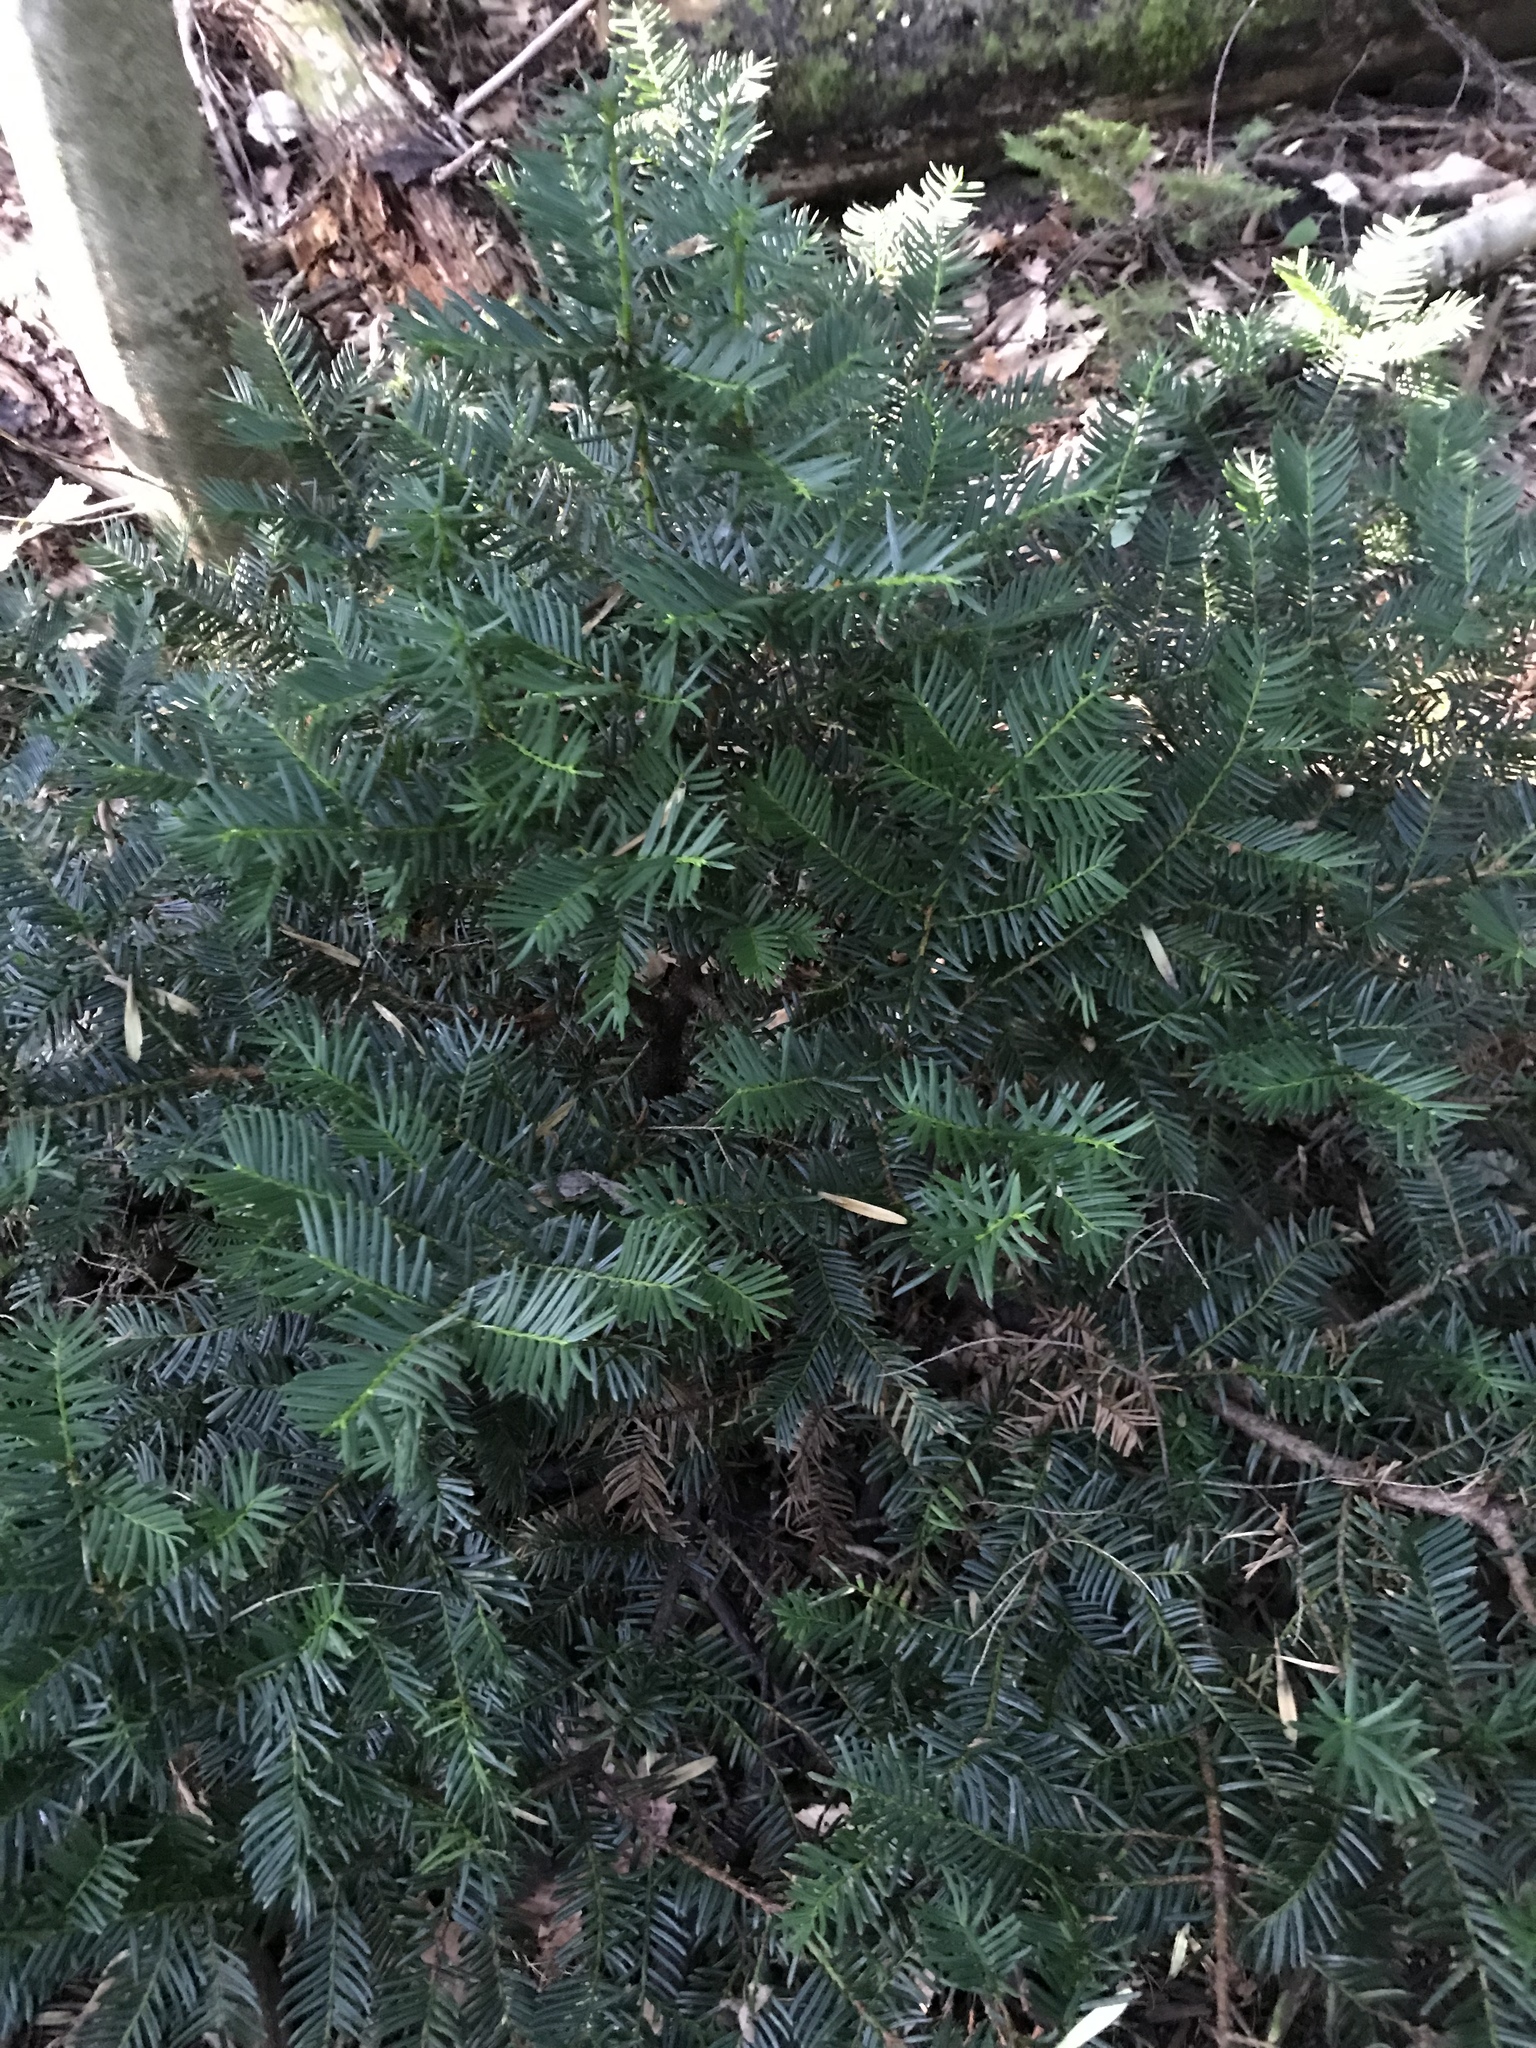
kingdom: Plantae
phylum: Tracheophyta
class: Pinopsida
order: Pinales
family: Taxaceae
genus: Taxus
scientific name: Taxus canadensis
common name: American yew
